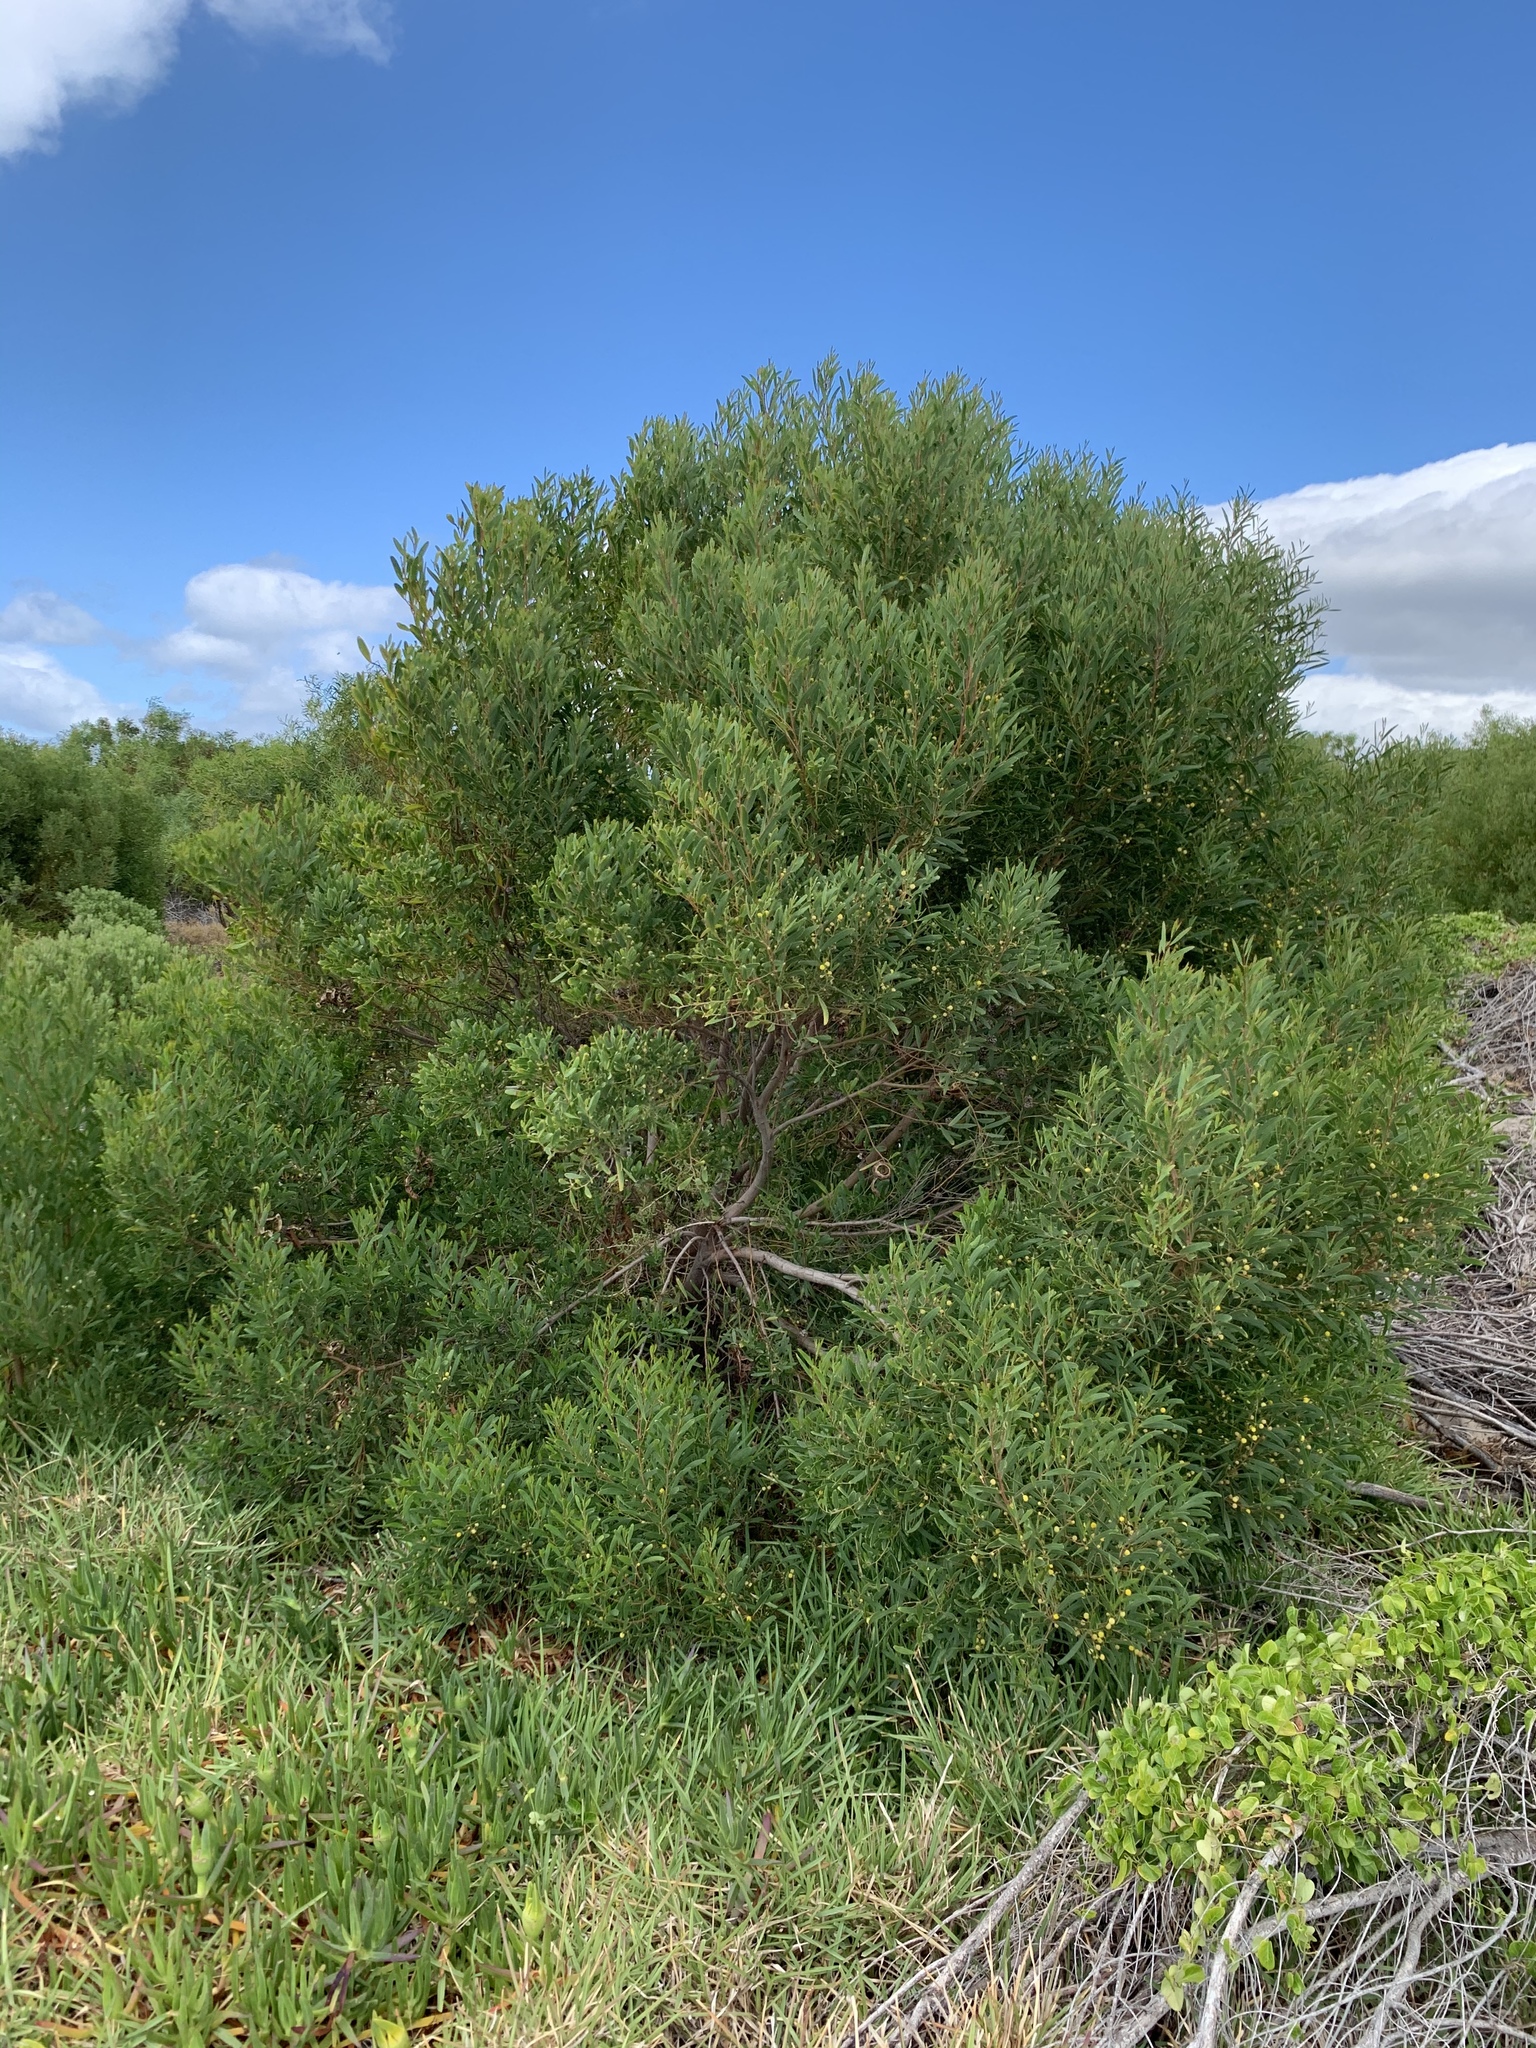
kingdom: Plantae
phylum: Tracheophyta
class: Magnoliopsida
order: Fabales
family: Fabaceae
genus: Acacia
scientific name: Acacia cyclops
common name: Coastal wattle
